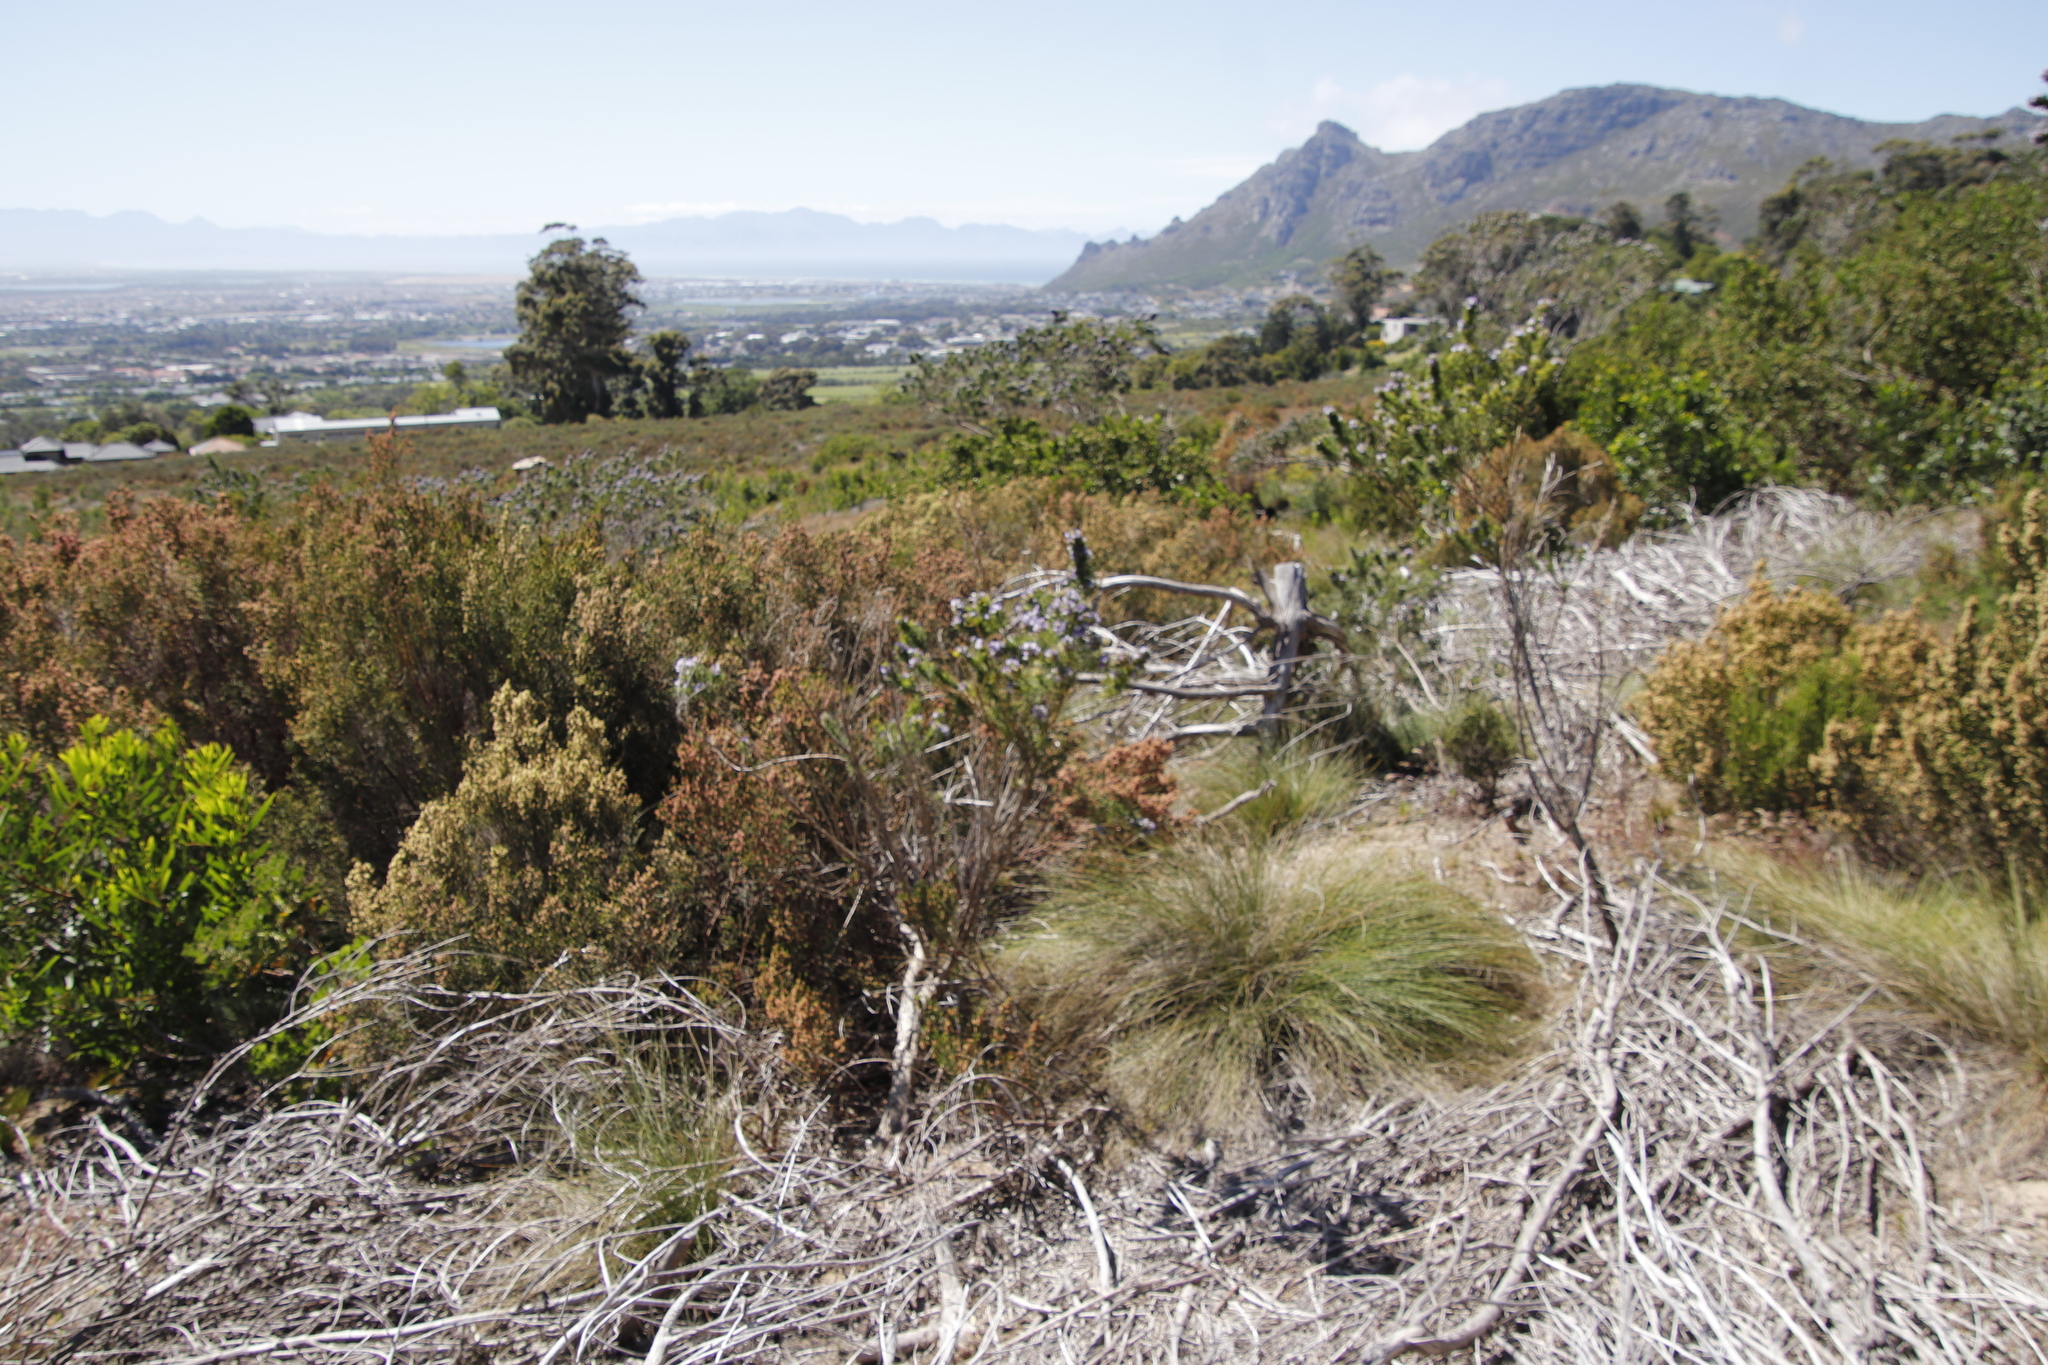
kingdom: Plantae
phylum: Tracheophyta
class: Magnoliopsida
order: Fabales
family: Fabaceae
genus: Psoralea
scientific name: Psoralea pinnata
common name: African scurfpea
